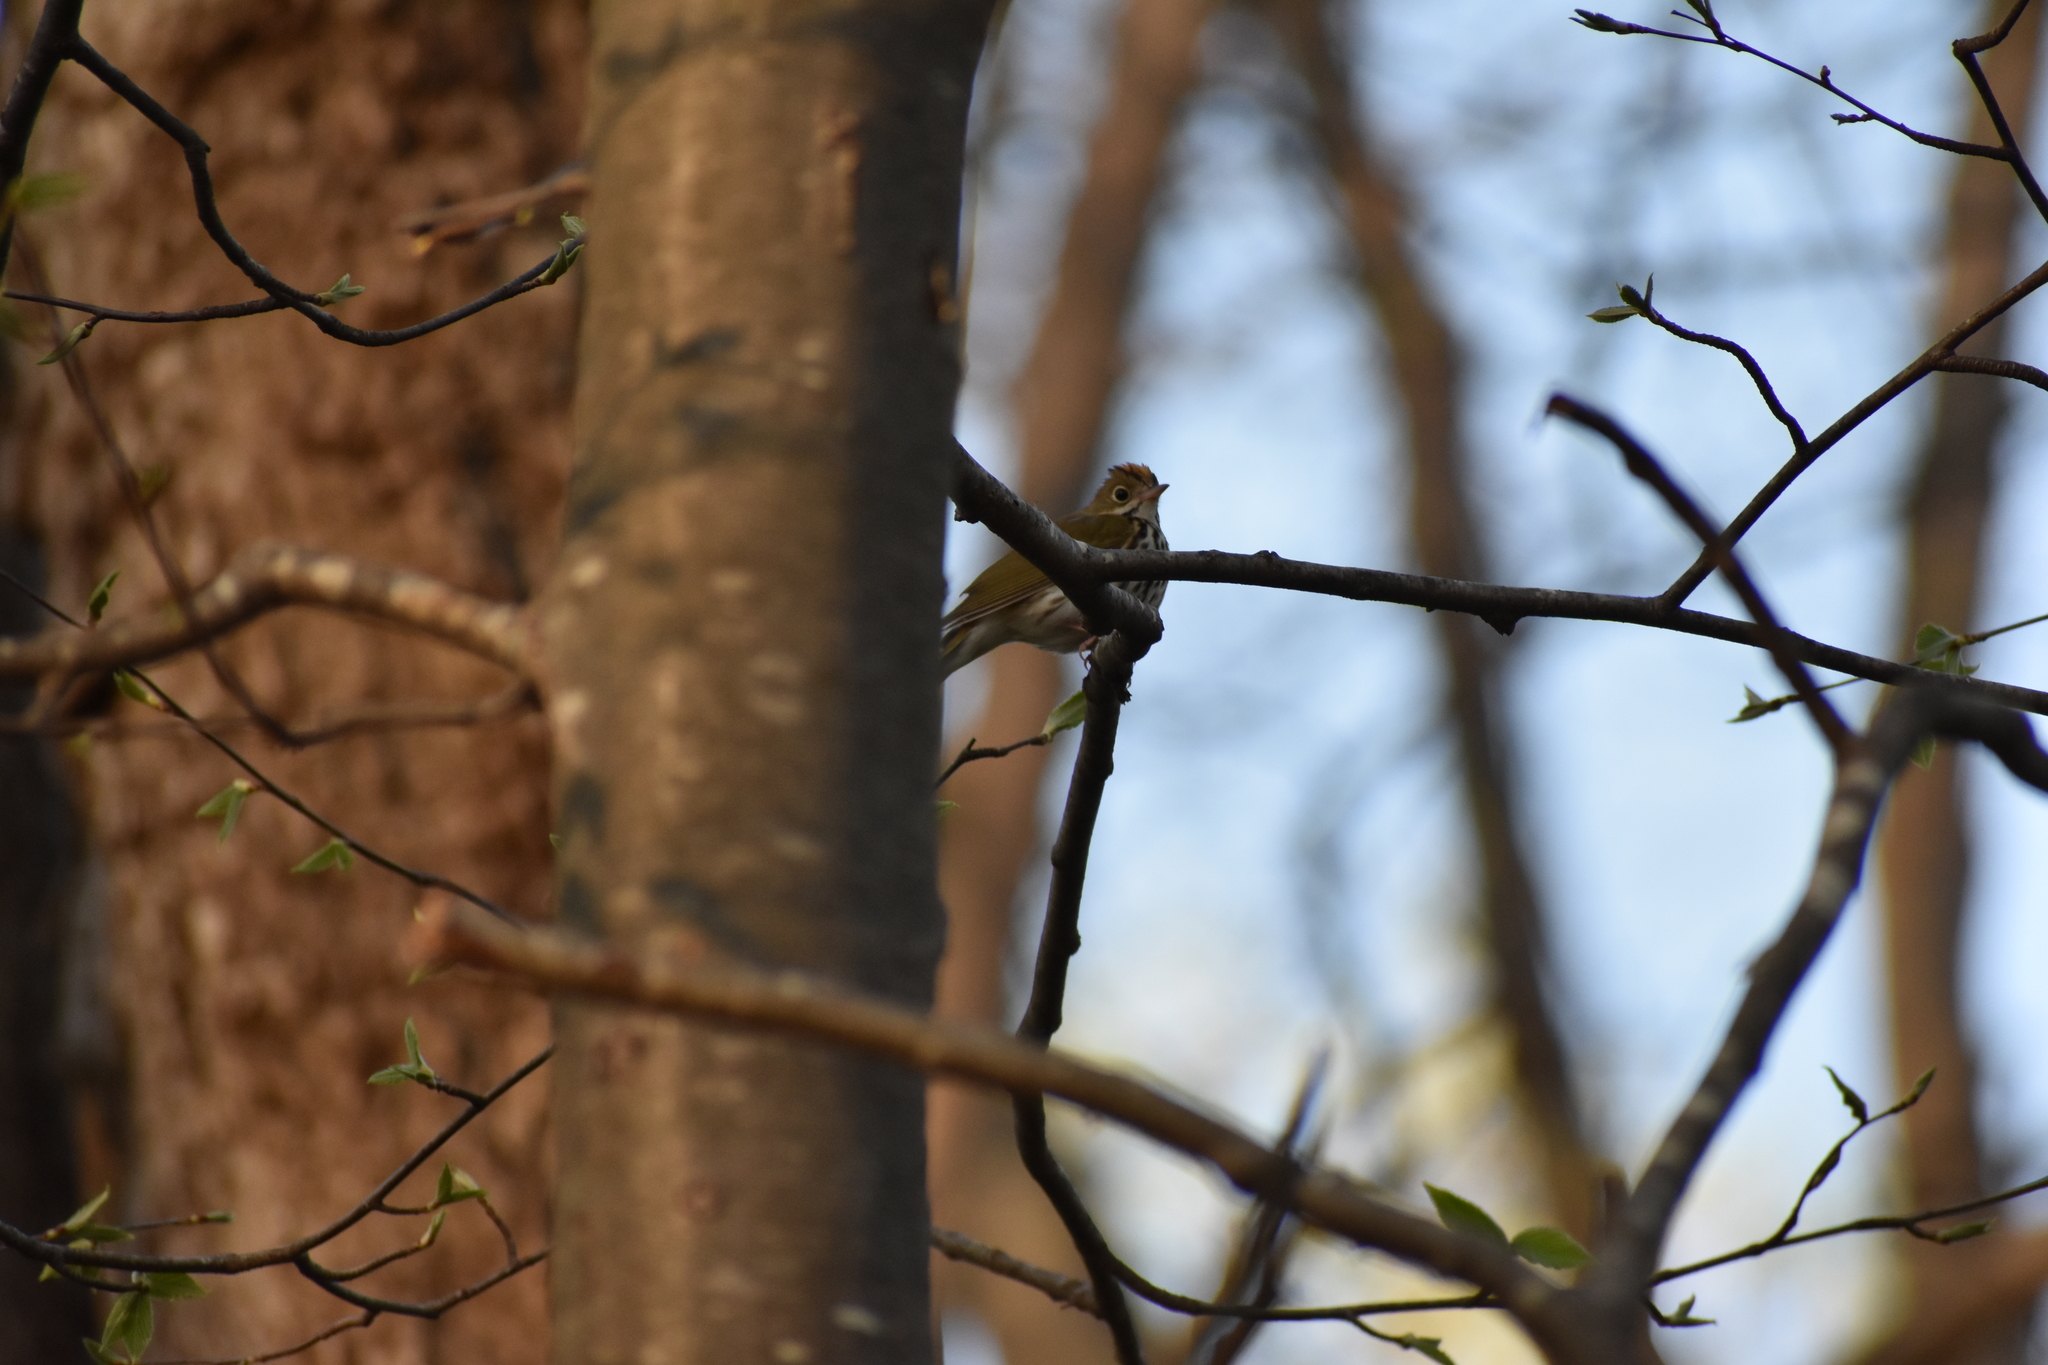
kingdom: Animalia
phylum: Chordata
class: Aves
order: Passeriformes
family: Parulidae
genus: Seiurus
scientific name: Seiurus aurocapilla
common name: Ovenbird
